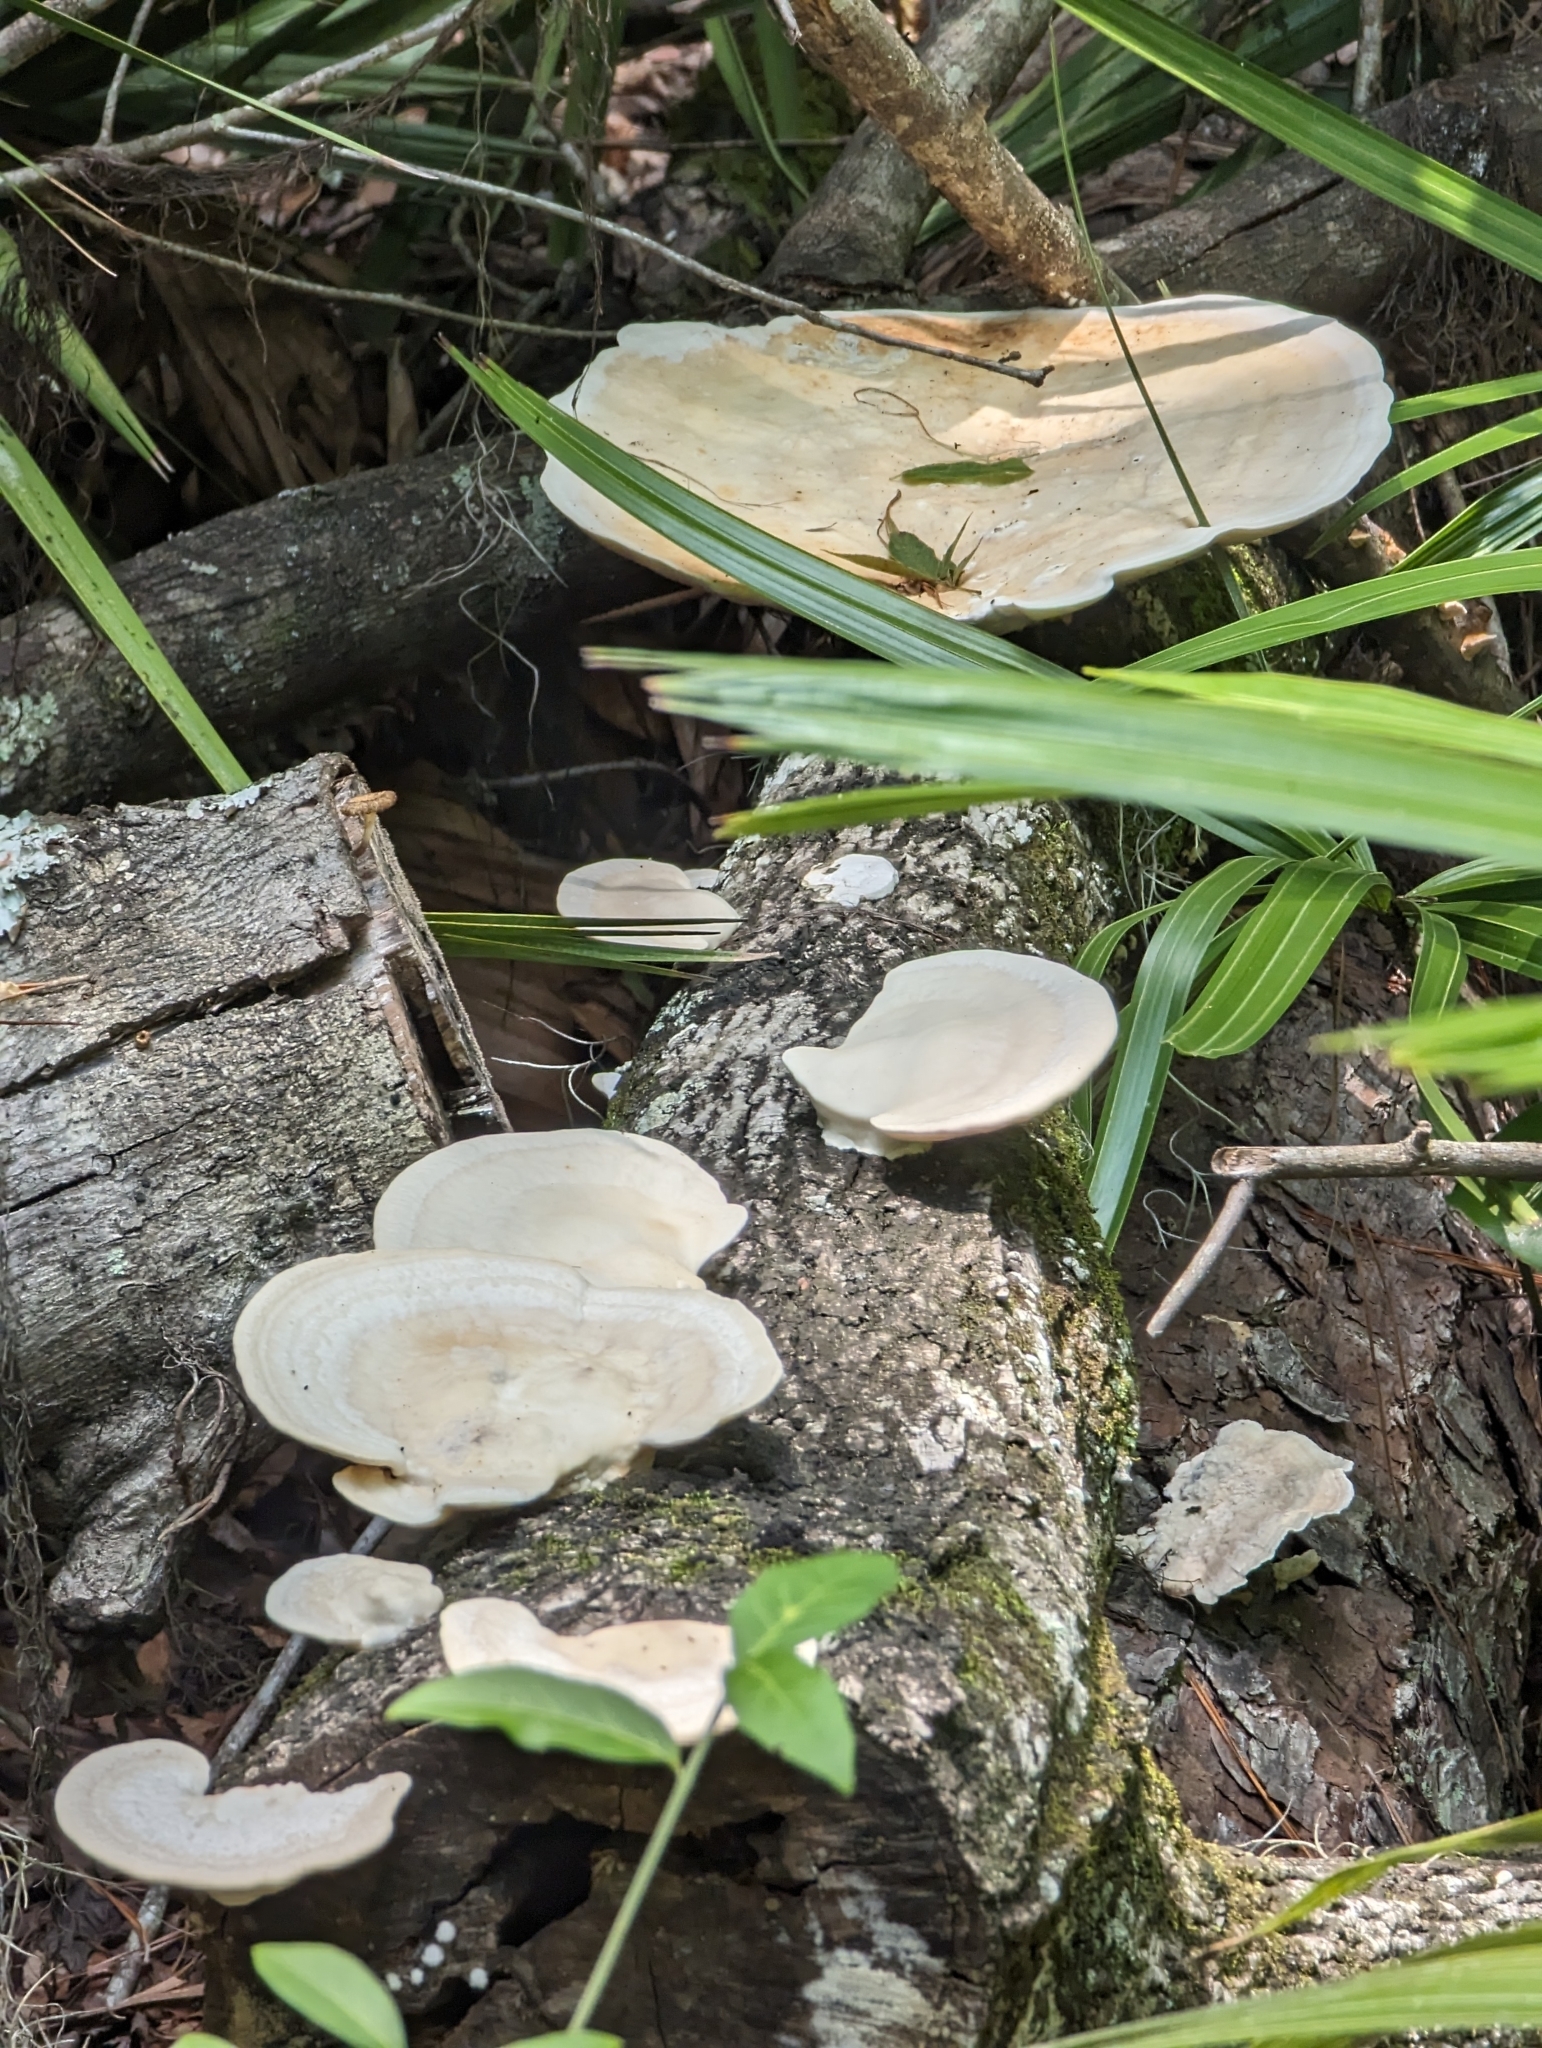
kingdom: Fungi
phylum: Basidiomycota
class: Agaricomycetes
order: Polyporales
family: Polyporaceae
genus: Trametes
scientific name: Trametes lactinea
